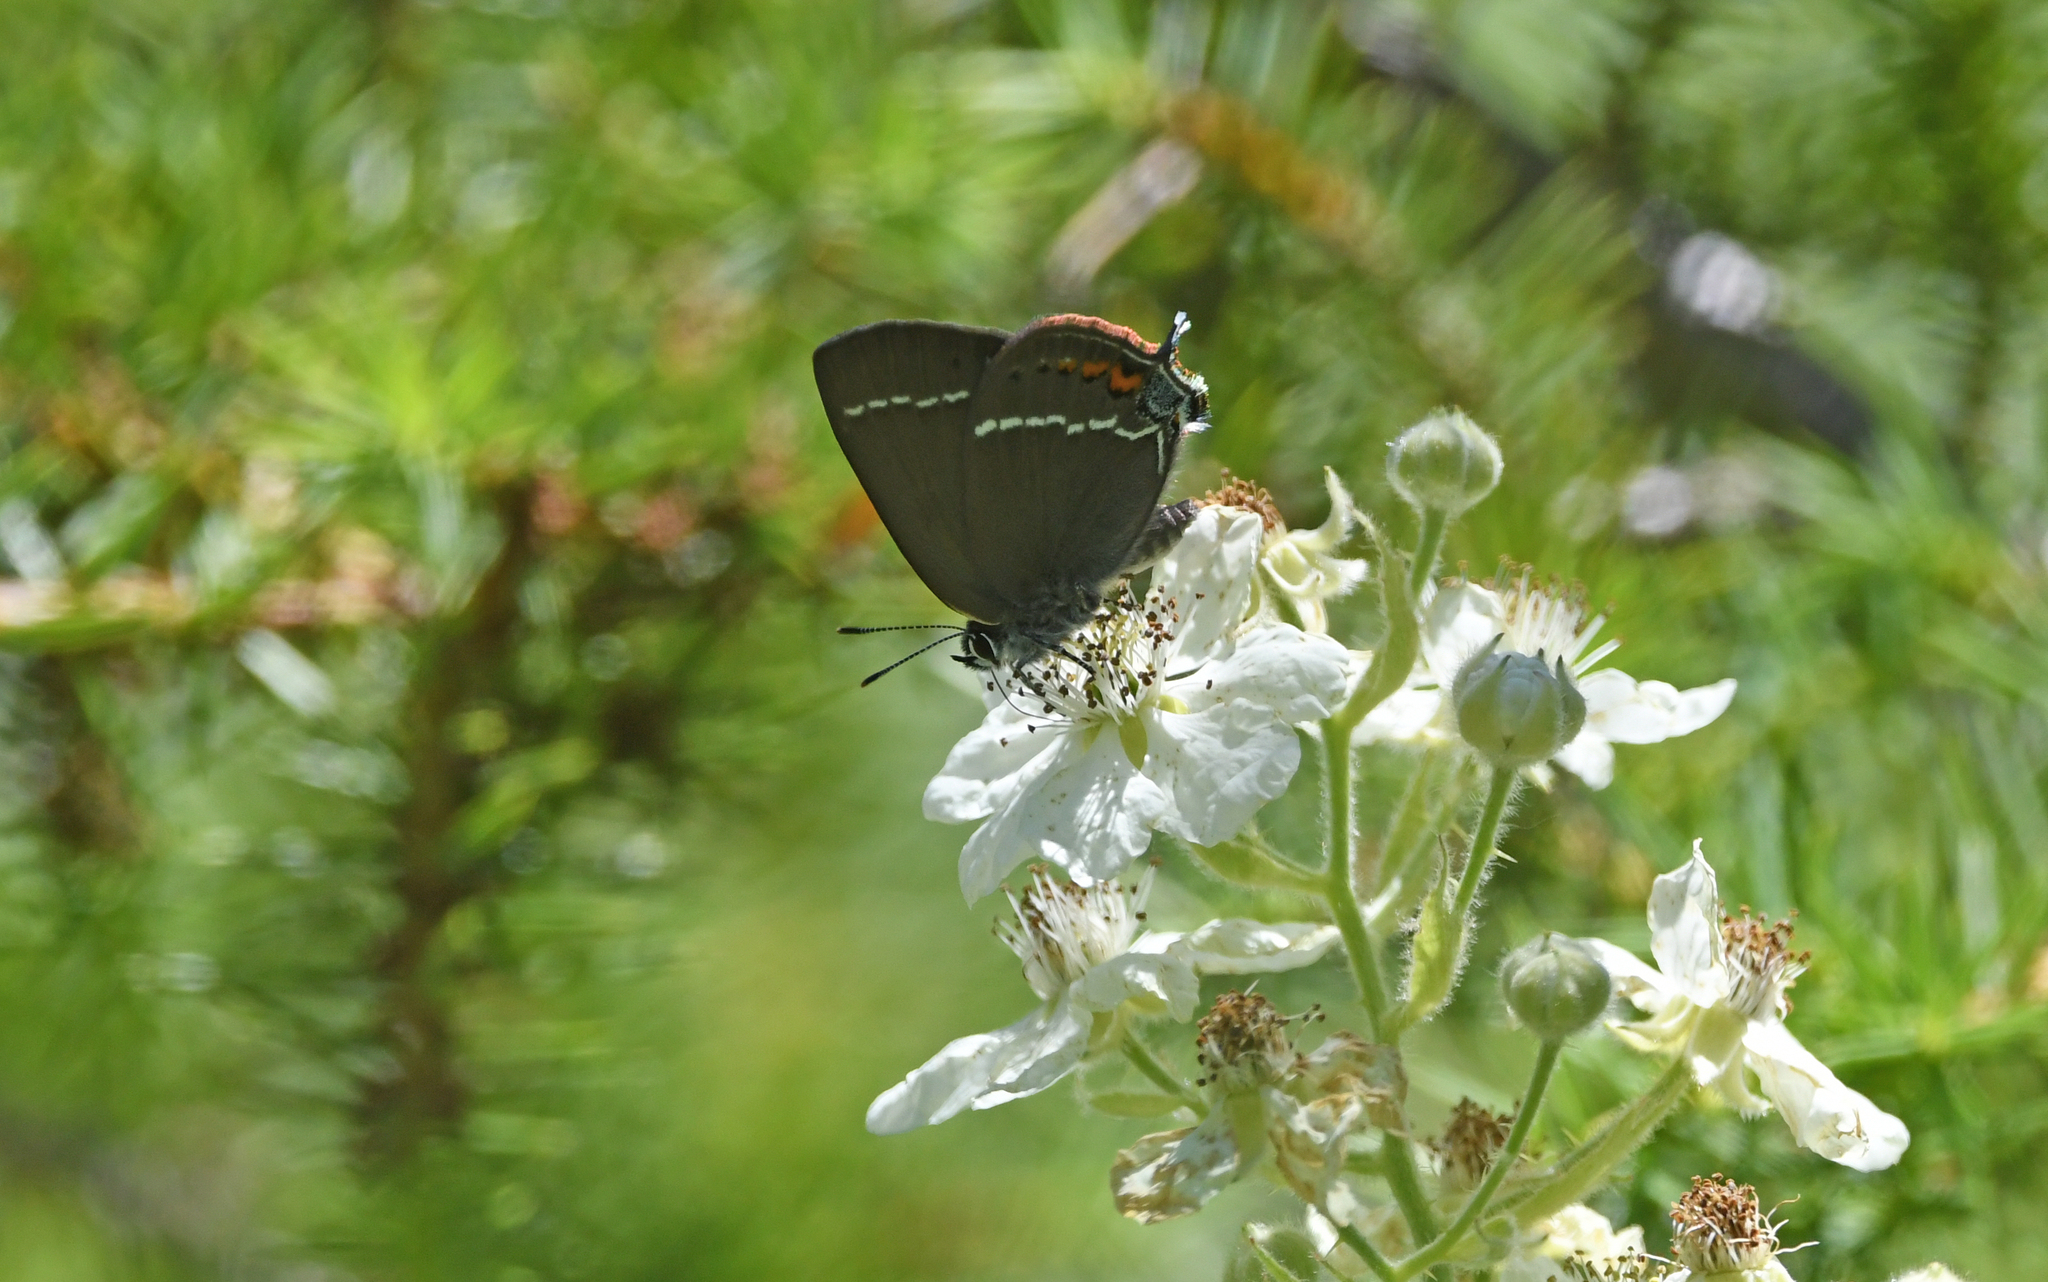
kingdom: Animalia
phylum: Arthropoda
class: Insecta
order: Lepidoptera
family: Lycaenidae
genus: Tuttiola
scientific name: Tuttiola spini
